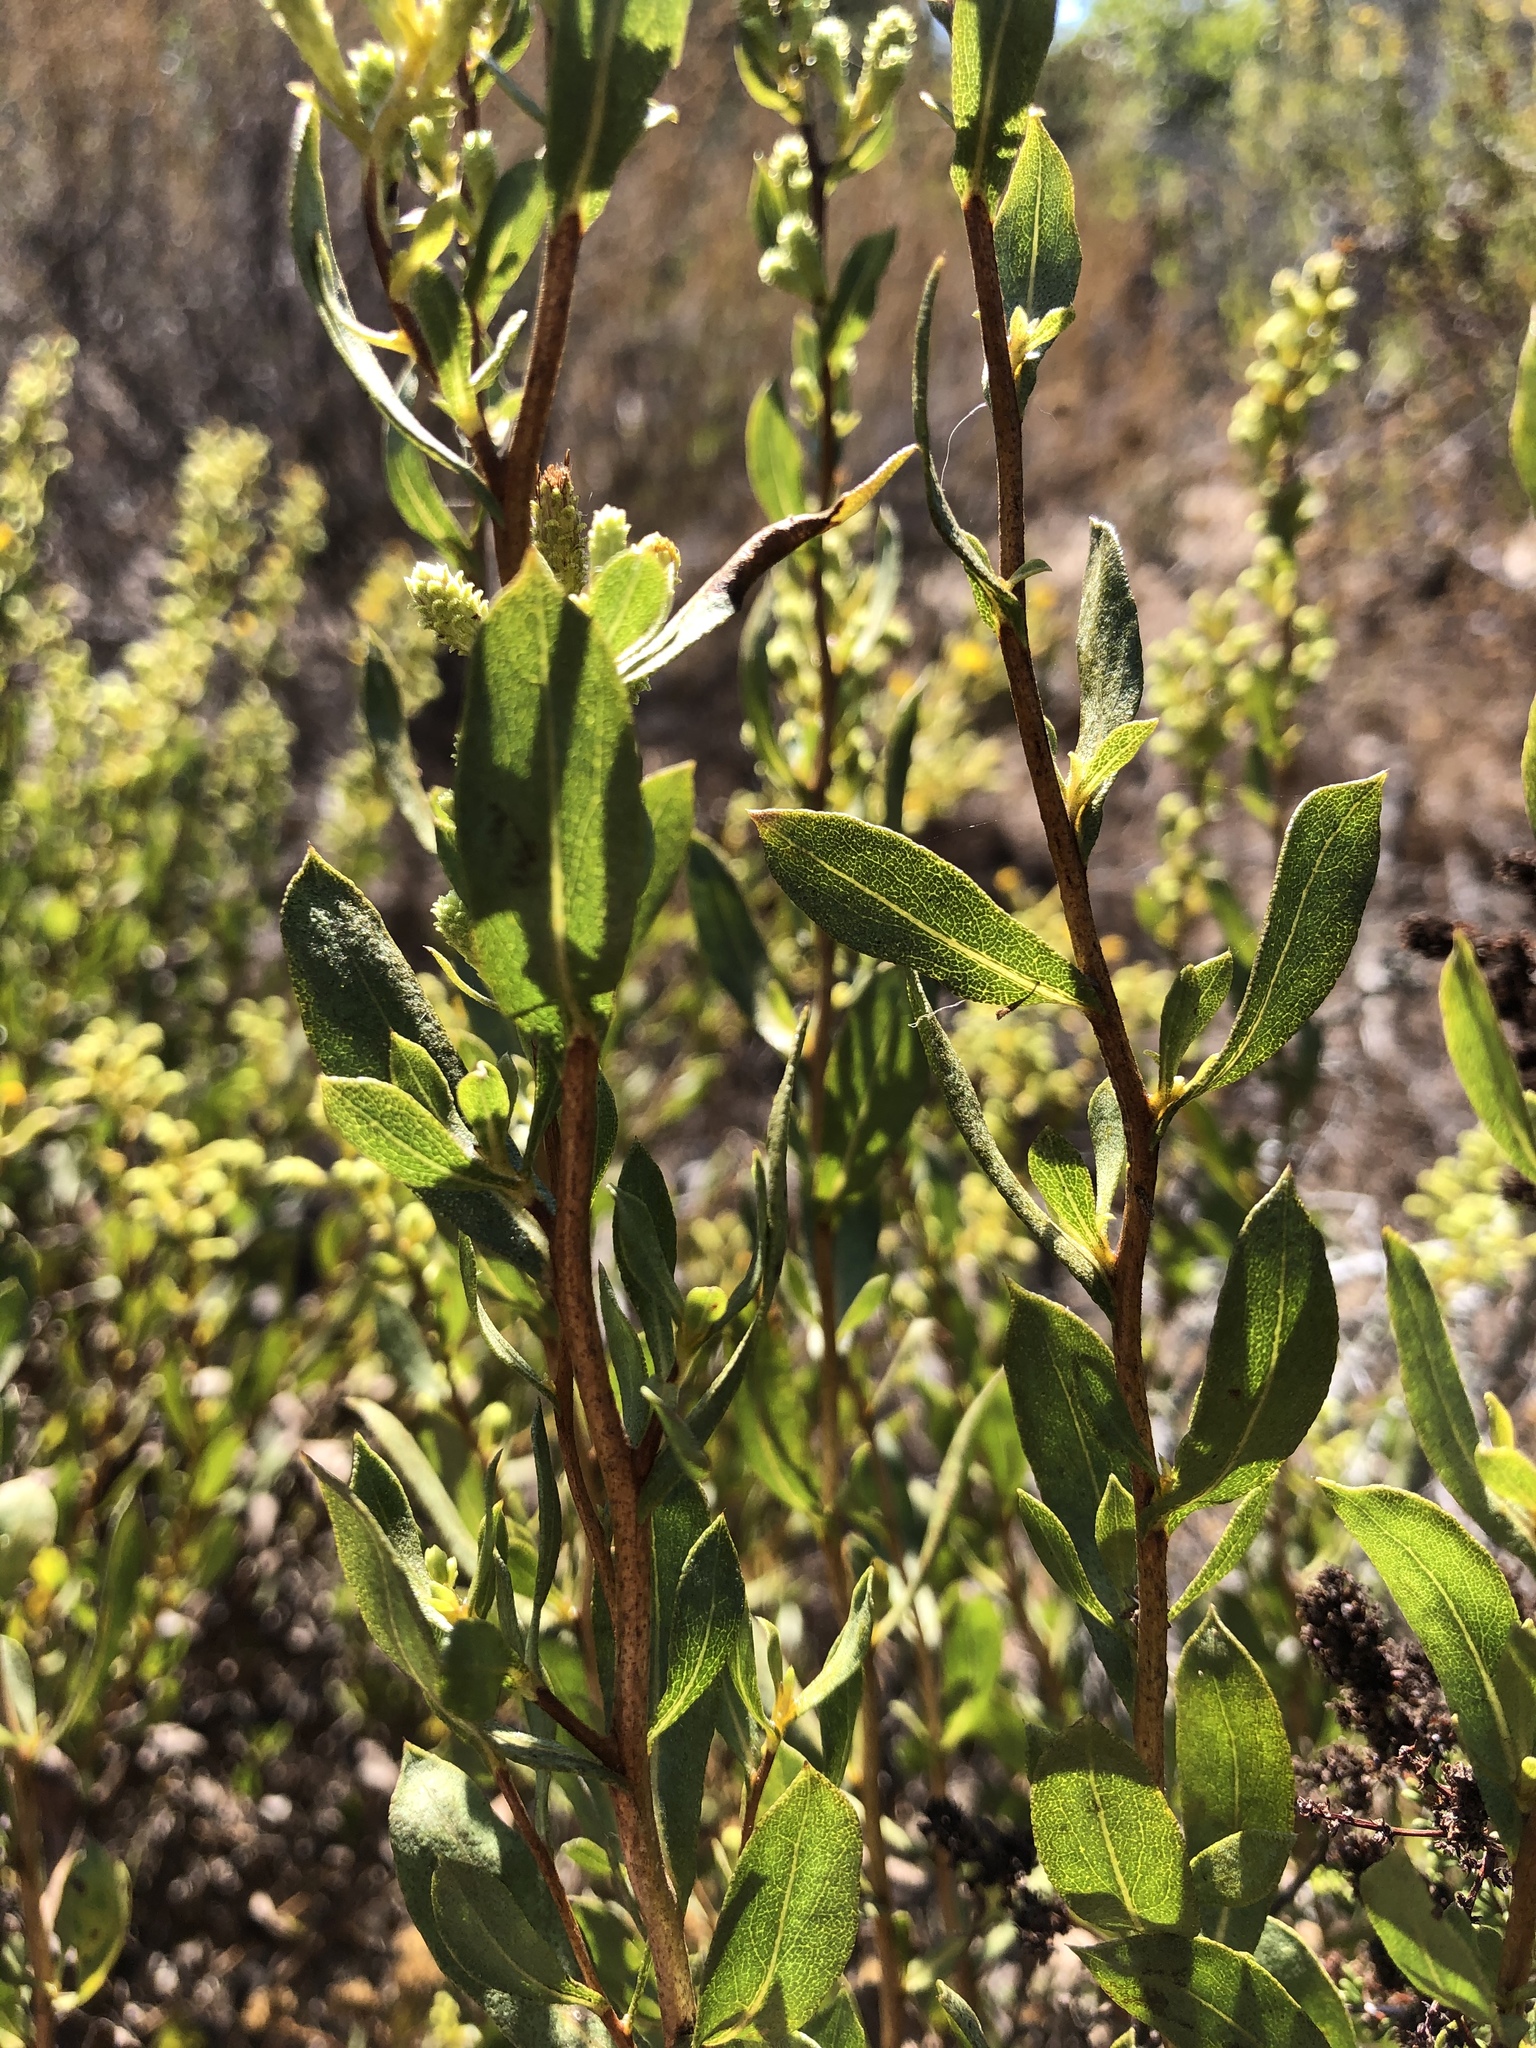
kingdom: Plantae
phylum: Tracheophyta
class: Magnoliopsida
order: Asterales
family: Asteraceae
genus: Hazardia
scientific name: Hazardia orcuttii
